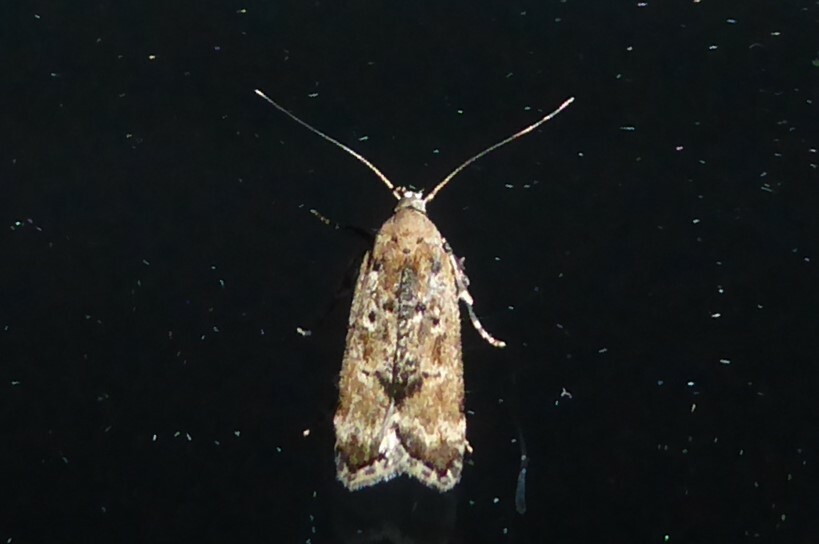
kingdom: Animalia
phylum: Arthropoda
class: Insecta
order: Lepidoptera
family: Gelechiidae
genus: Anisoplaca
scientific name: Anisoplaca achyrota
